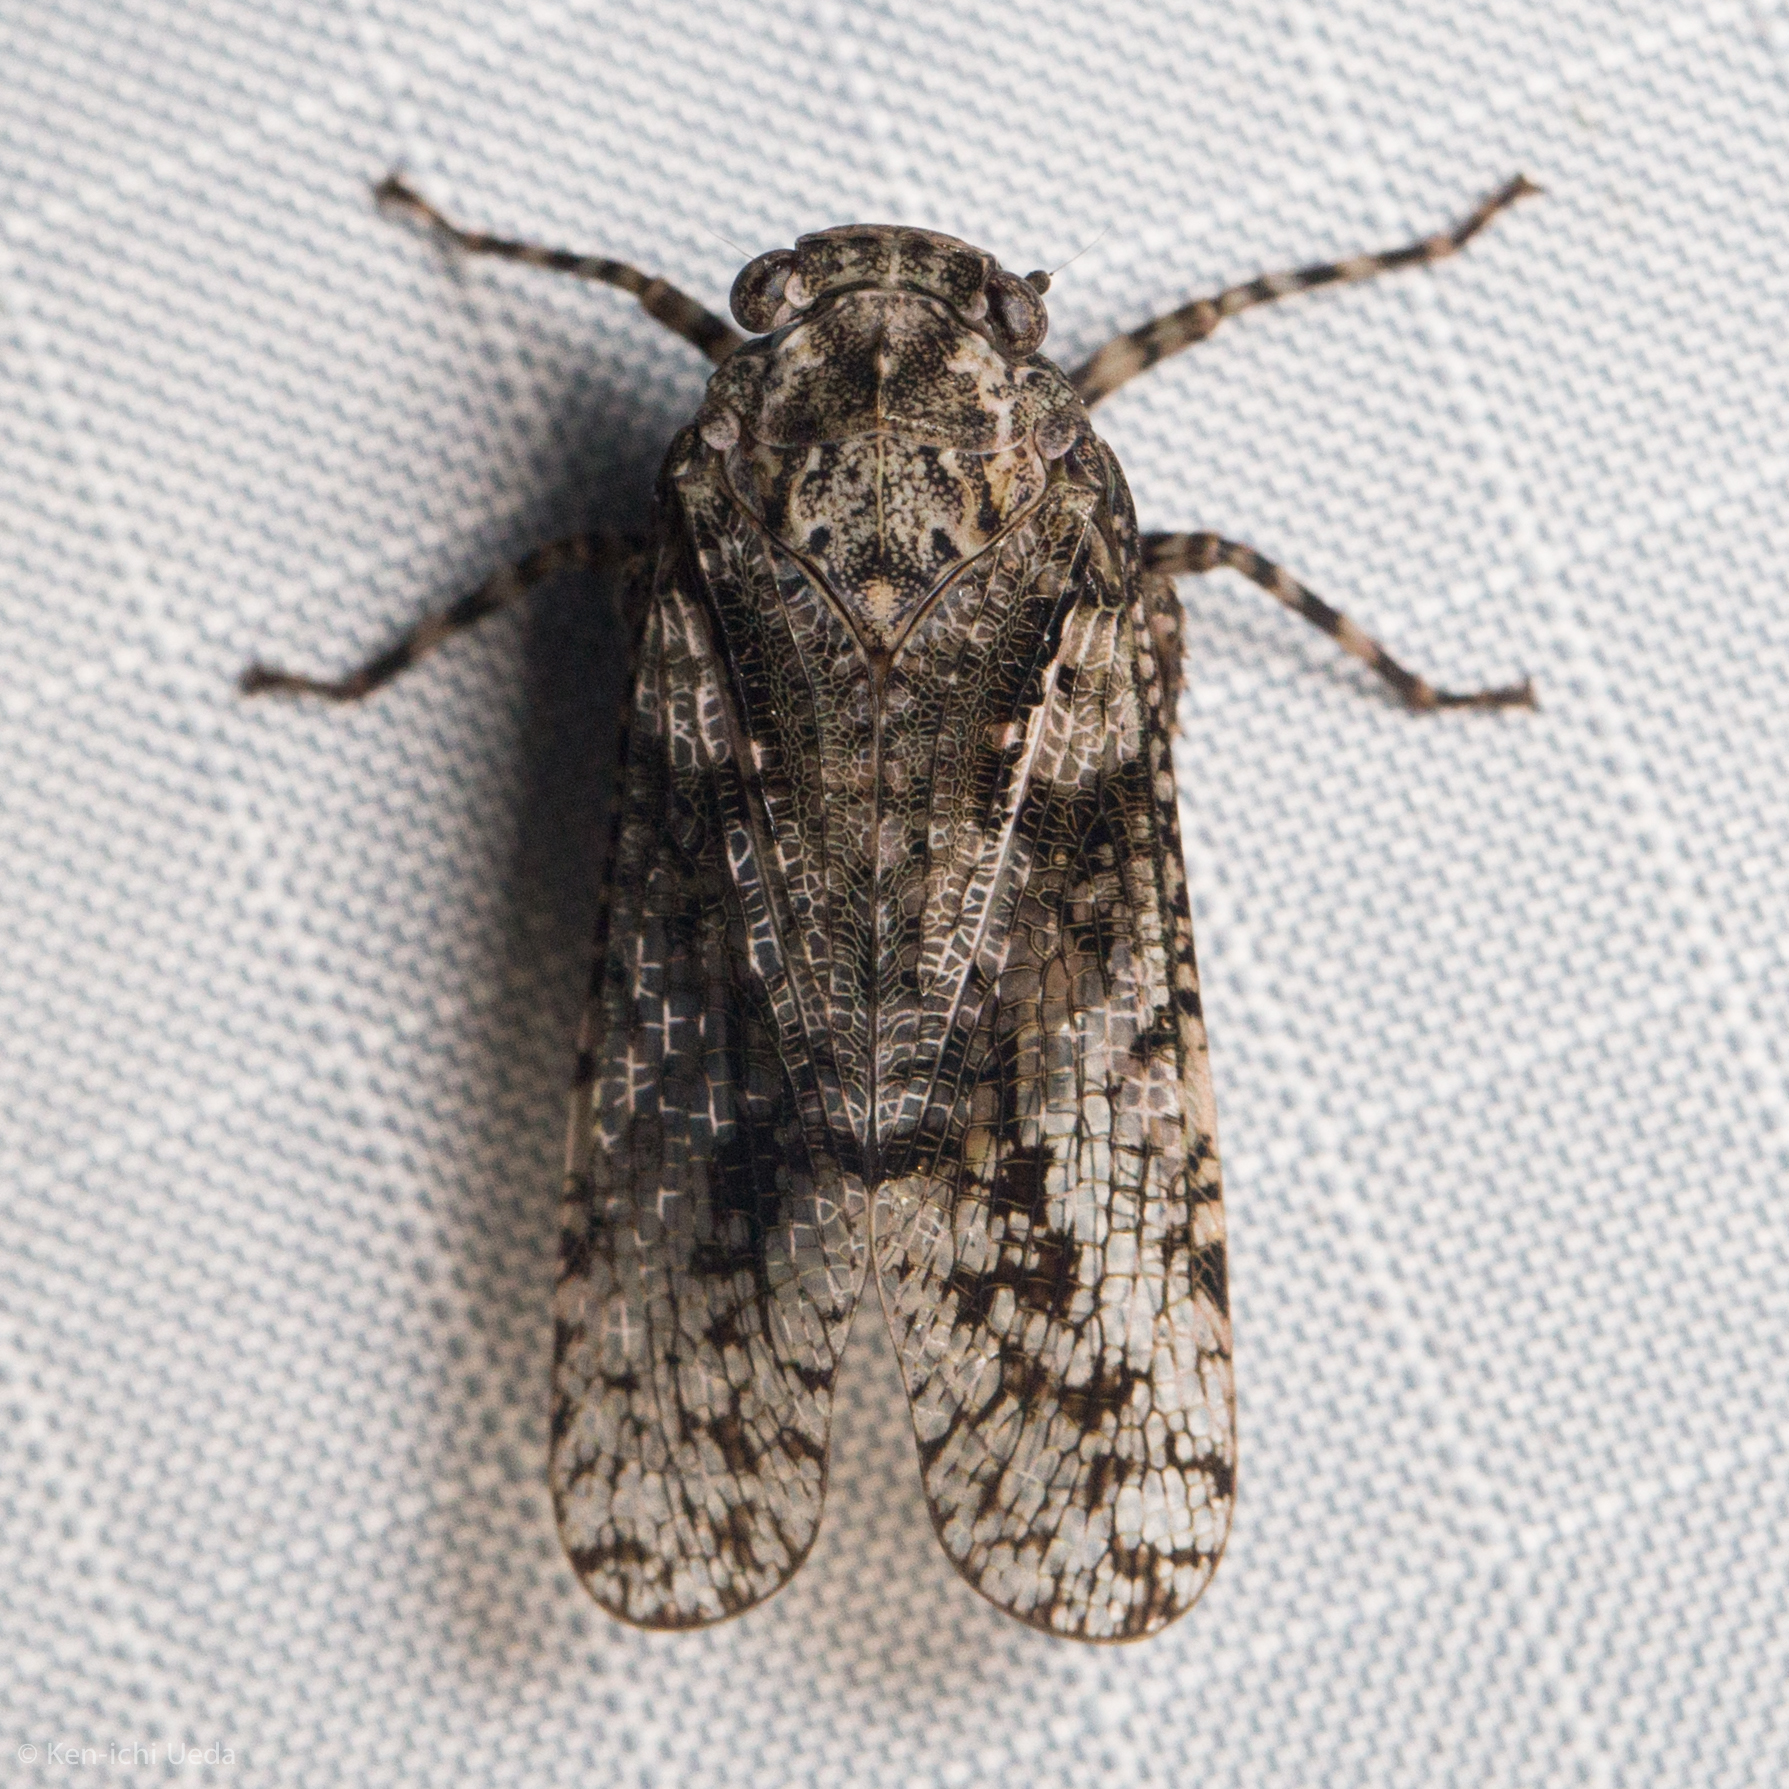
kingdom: Animalia
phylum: Arthropoda
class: Insecta
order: Hemiptera
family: Fulgoridae
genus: Alphina
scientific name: Alphina glauca
